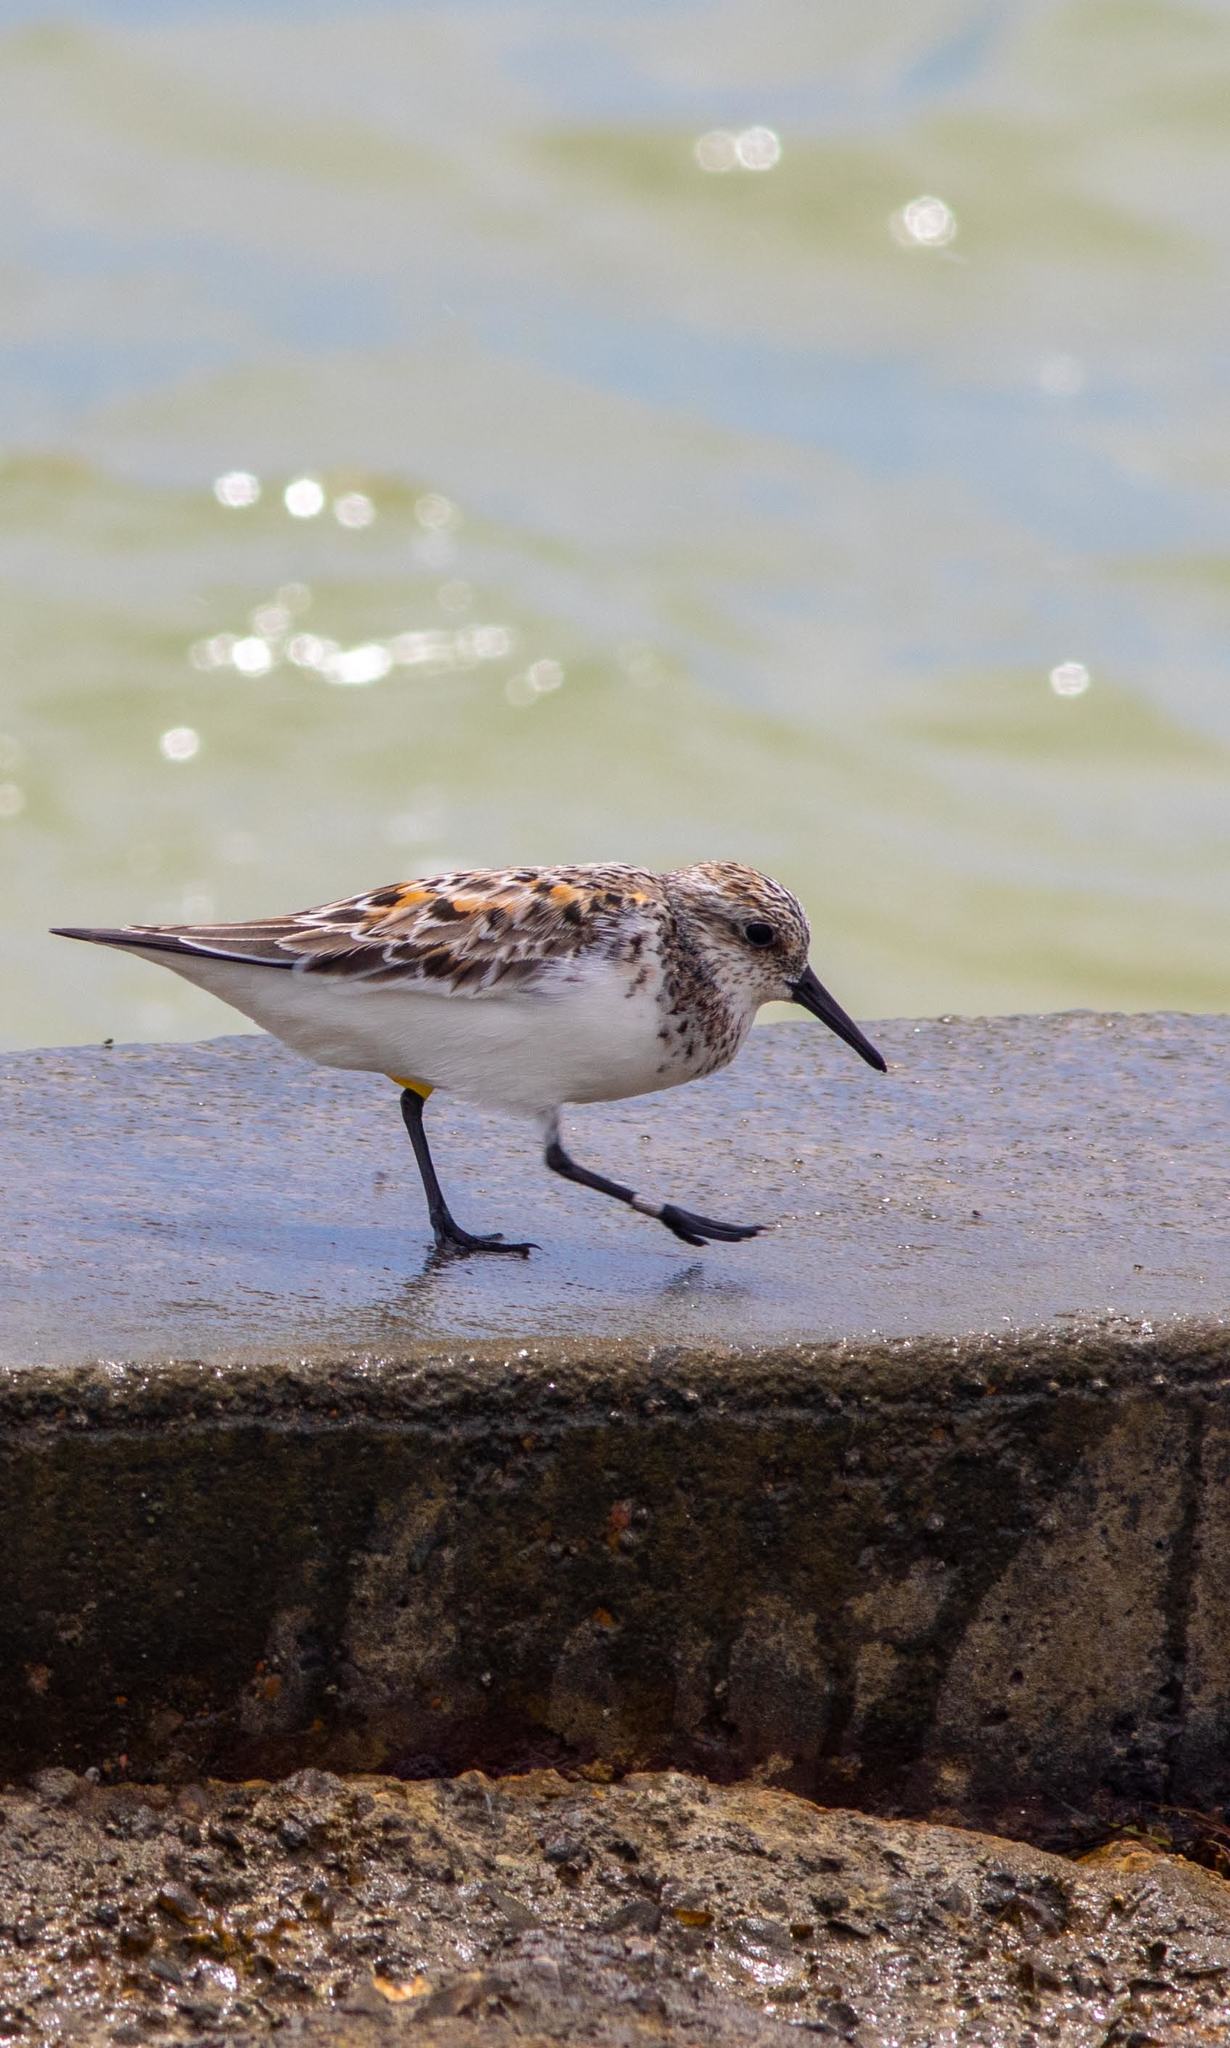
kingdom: Animalia
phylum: Chordata
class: Aves
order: Charadriiformes
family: Scolopacidae
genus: Calidris
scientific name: Calidris alba
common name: Sanderling
